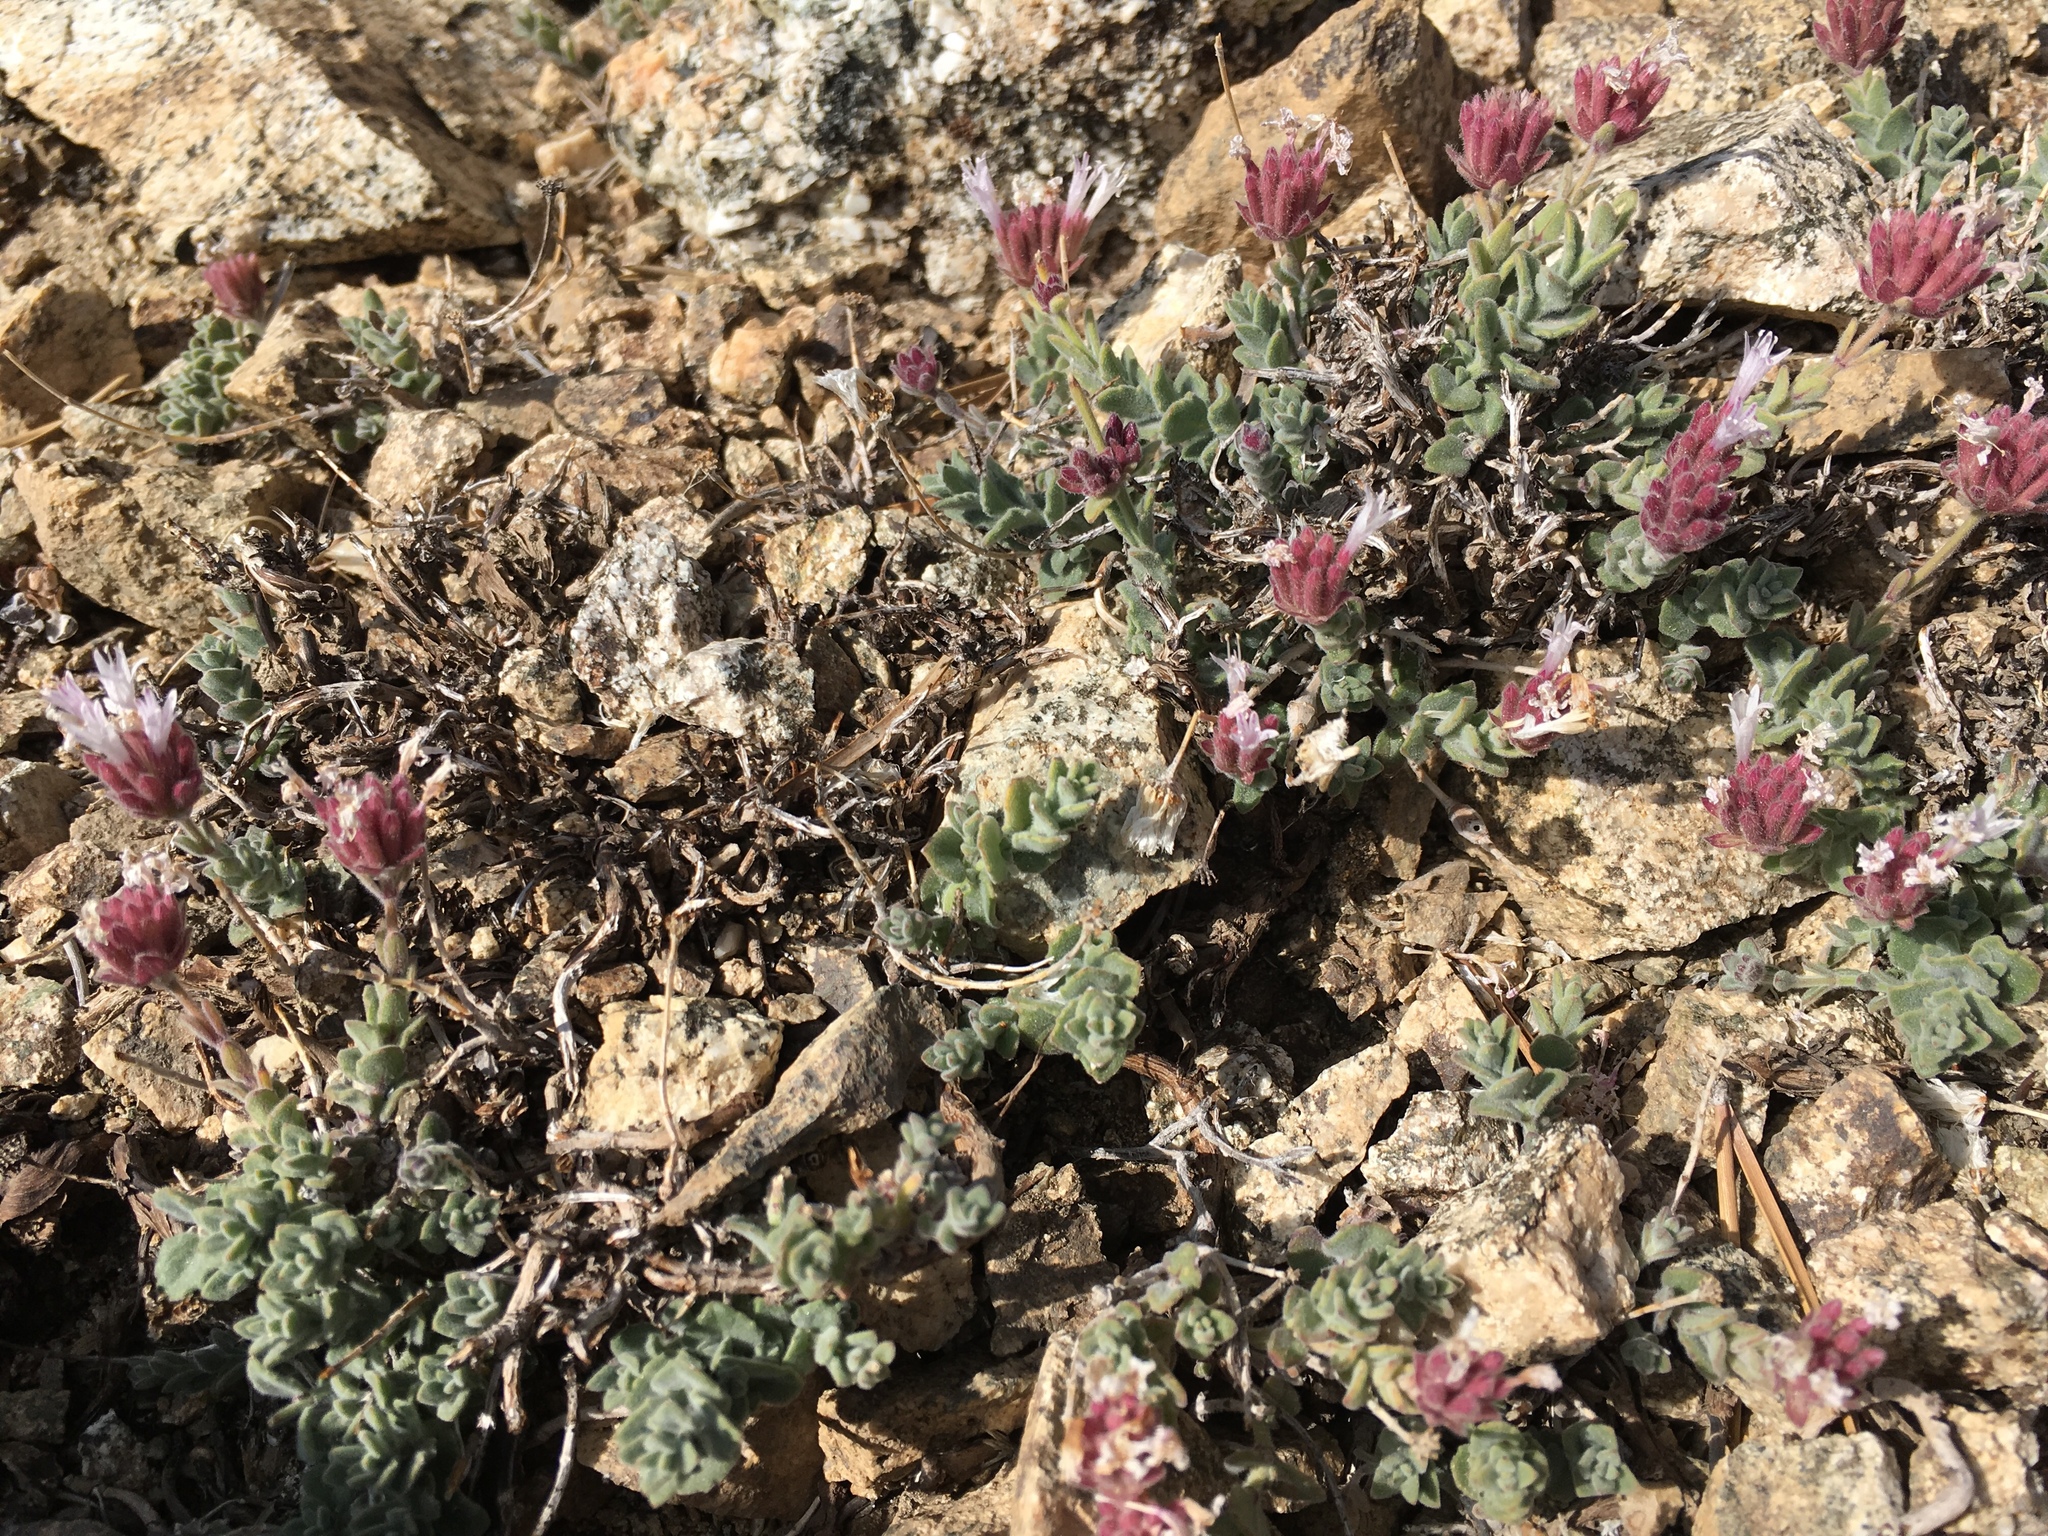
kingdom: Plantae
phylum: Tracheophyta
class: Magnoliopsida
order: Lamiales
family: Lamiaceae
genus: Monardella
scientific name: Monardella australis
